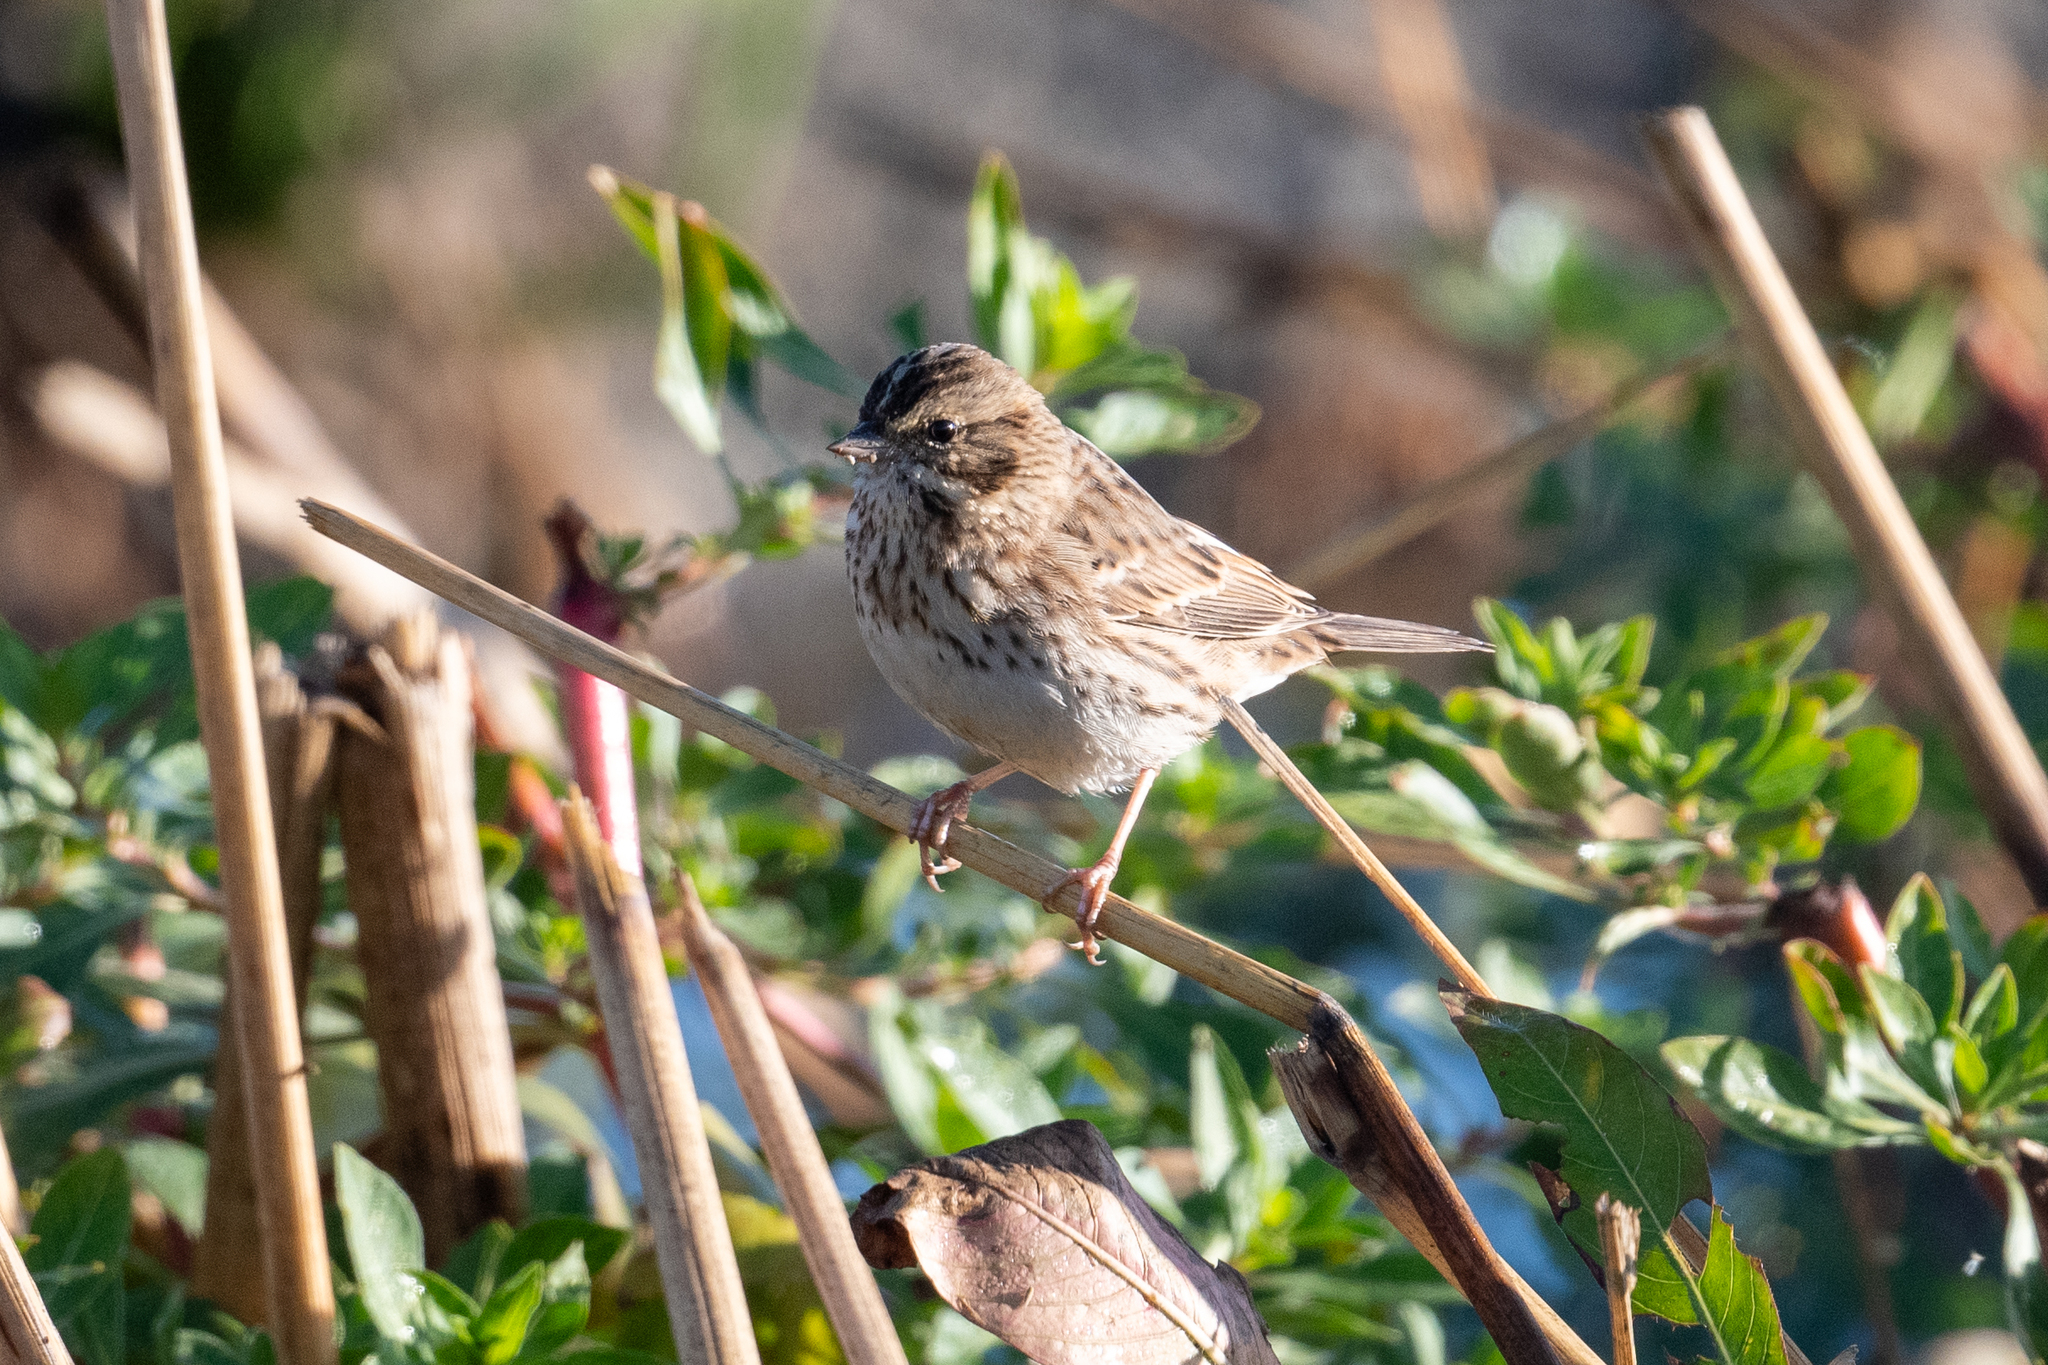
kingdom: Animalia
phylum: Chordata
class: Aves
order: Passeriformes
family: Passerellidae
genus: Passerculus
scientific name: Passerculus sandwichensis
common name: Savannah sparrow
